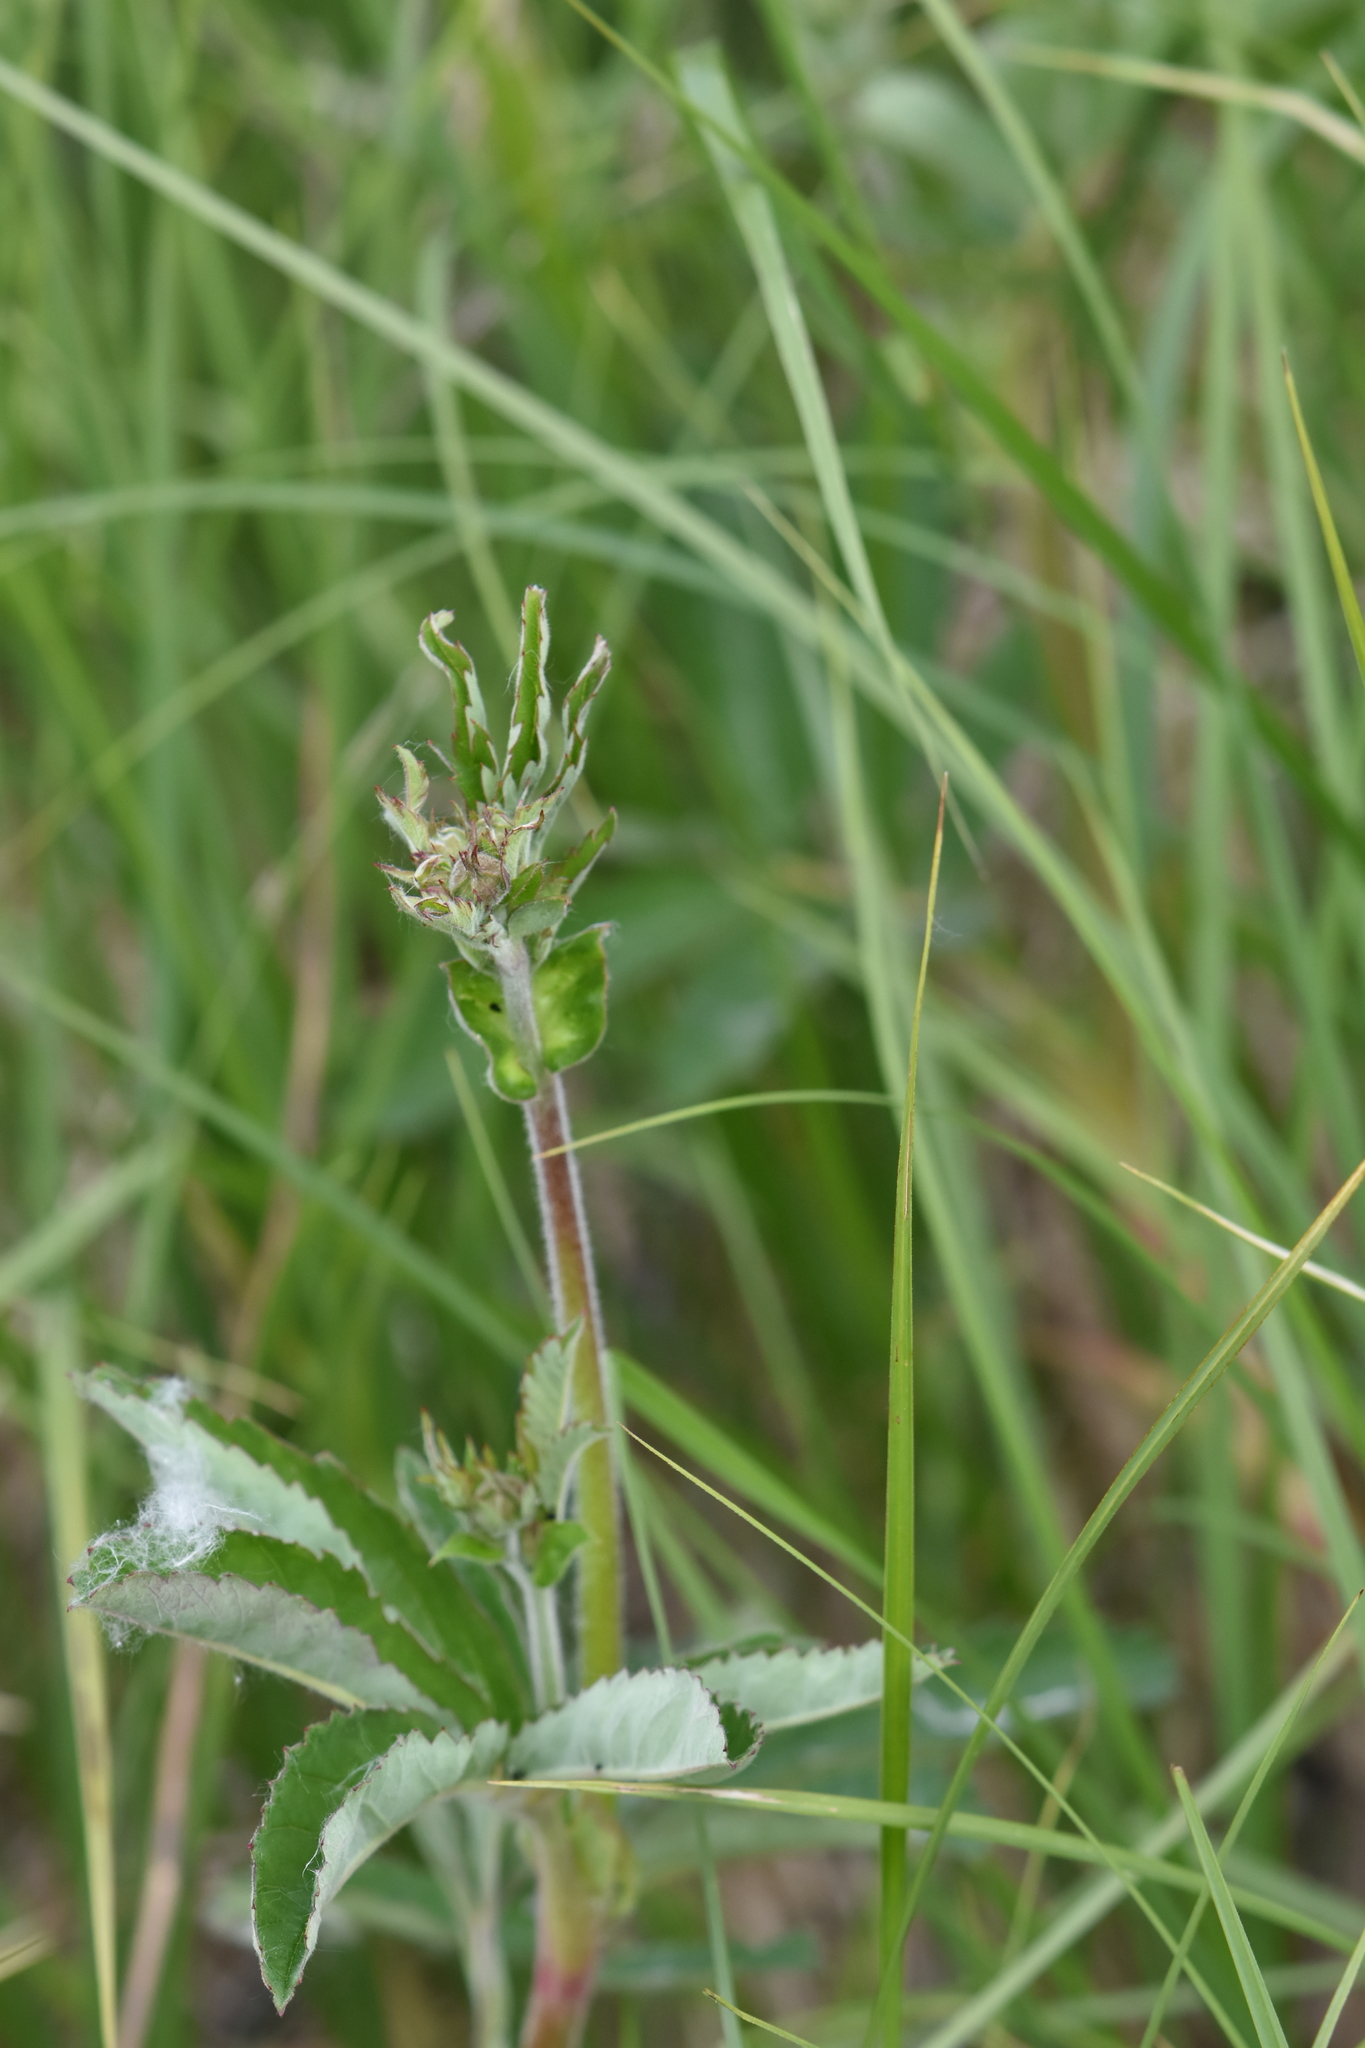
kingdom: Plantae
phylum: Tracheophyta
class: Magnoliopsida
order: Rosales
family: Rosaceae
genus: Comarum
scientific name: Comarum palustre
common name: Marsh cinquefoil
